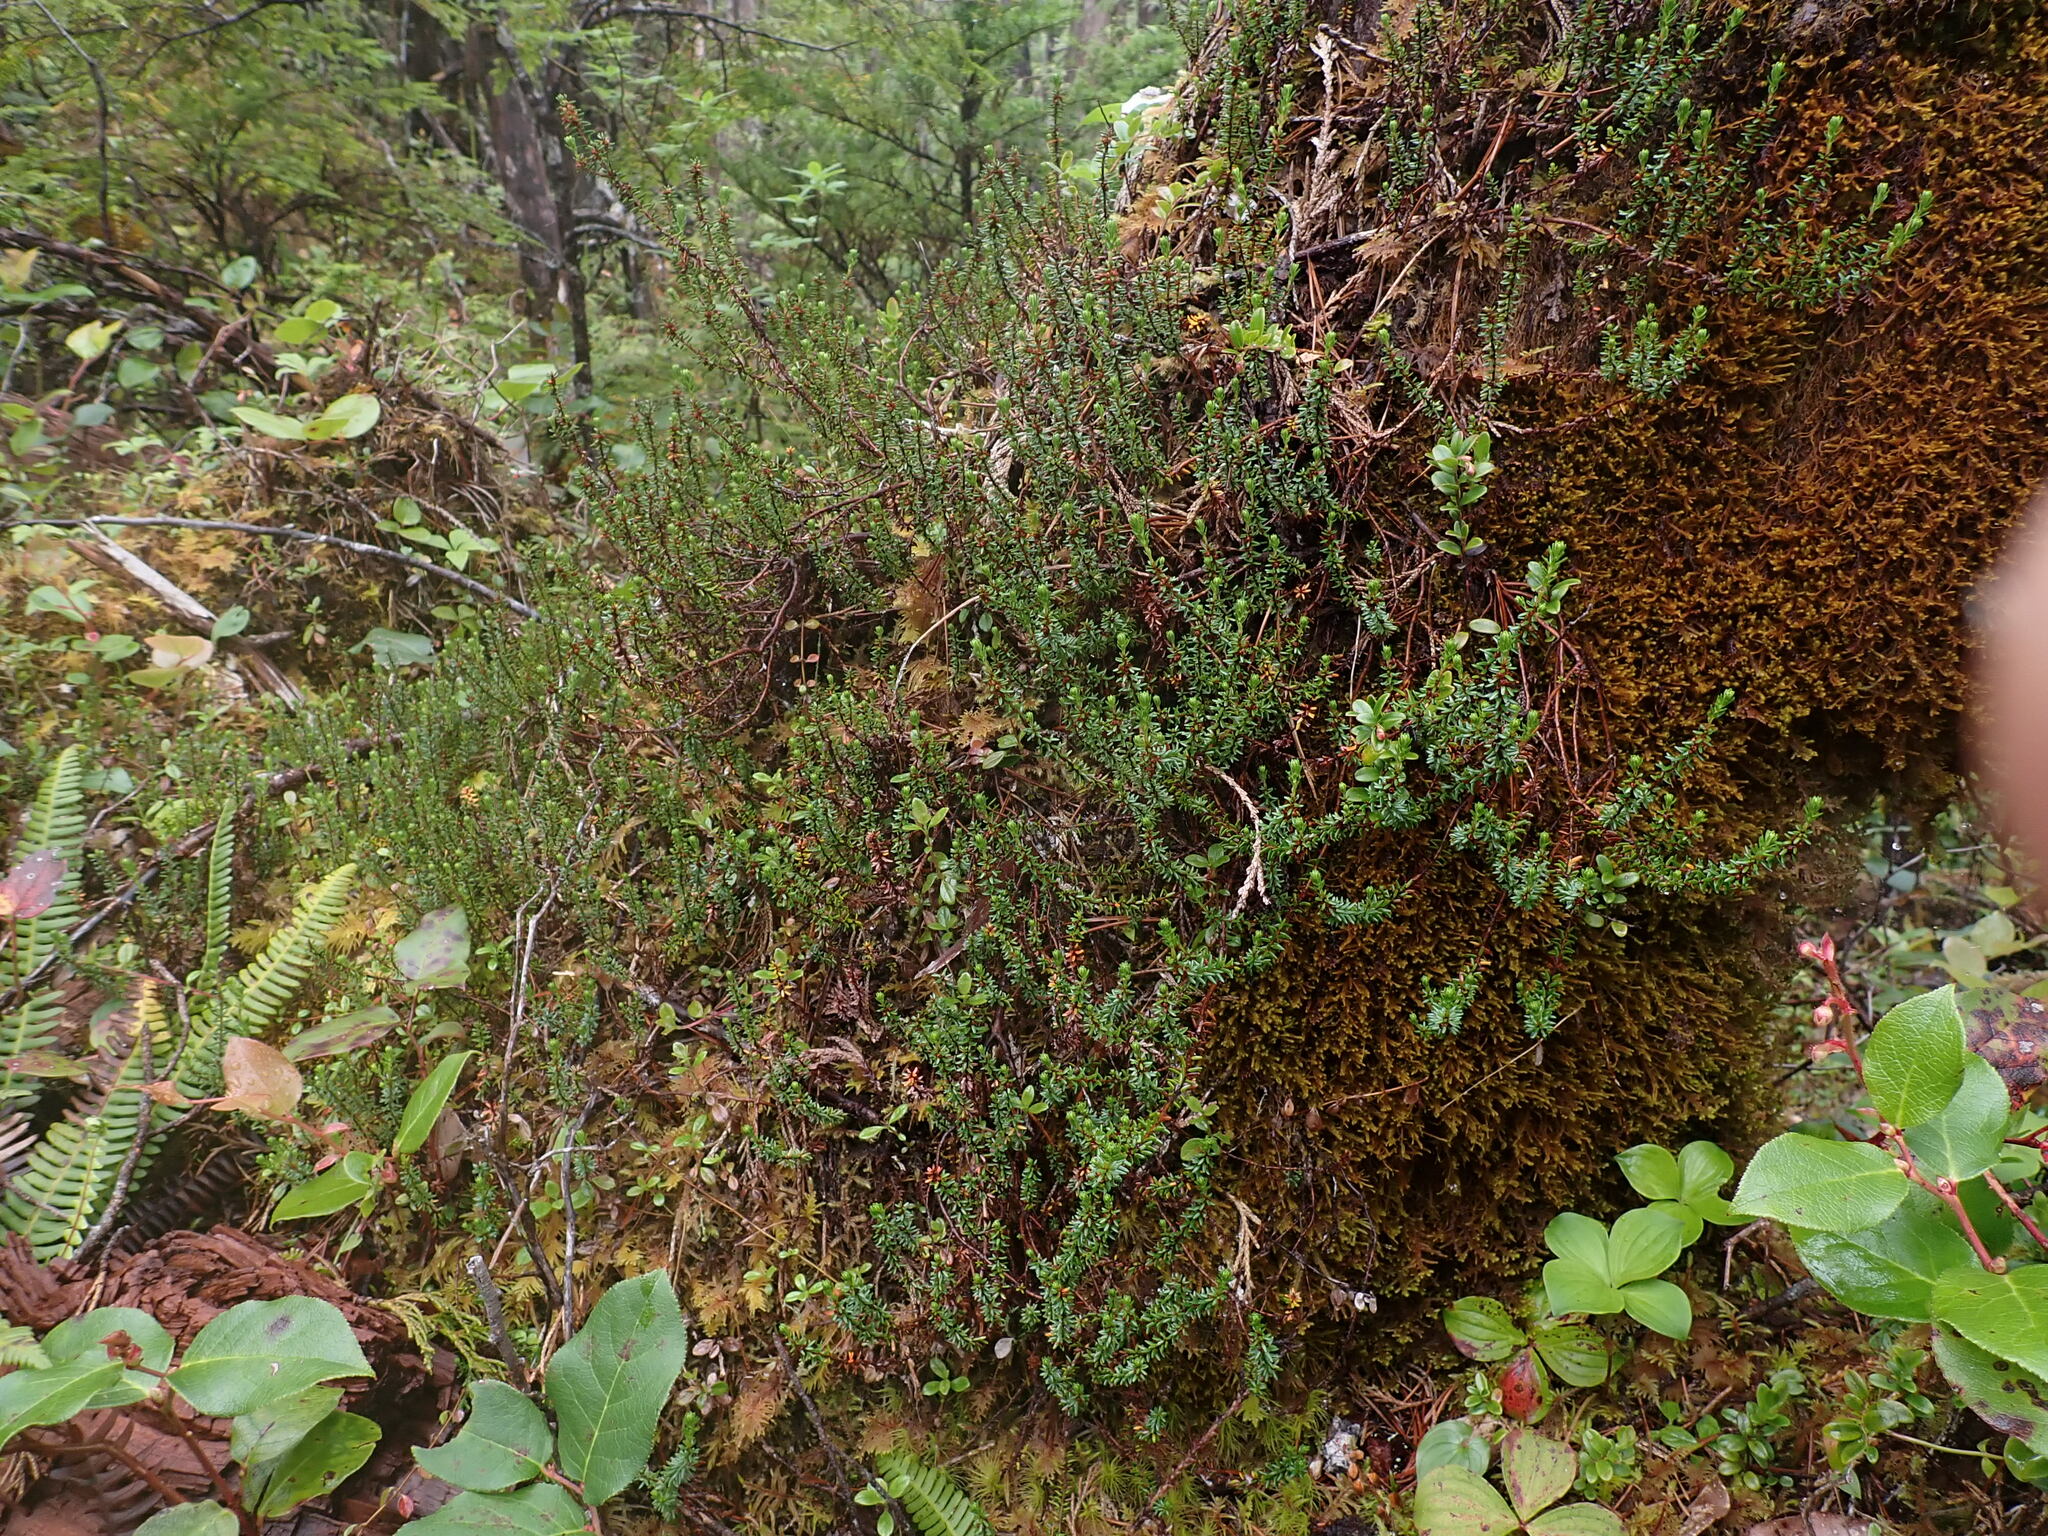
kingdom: Plantae
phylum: Tracheophyta
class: Magnoliopsida
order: Ericales
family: Ericaceae
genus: Empetrum
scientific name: Empetrum nigrum
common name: Black crowberry
